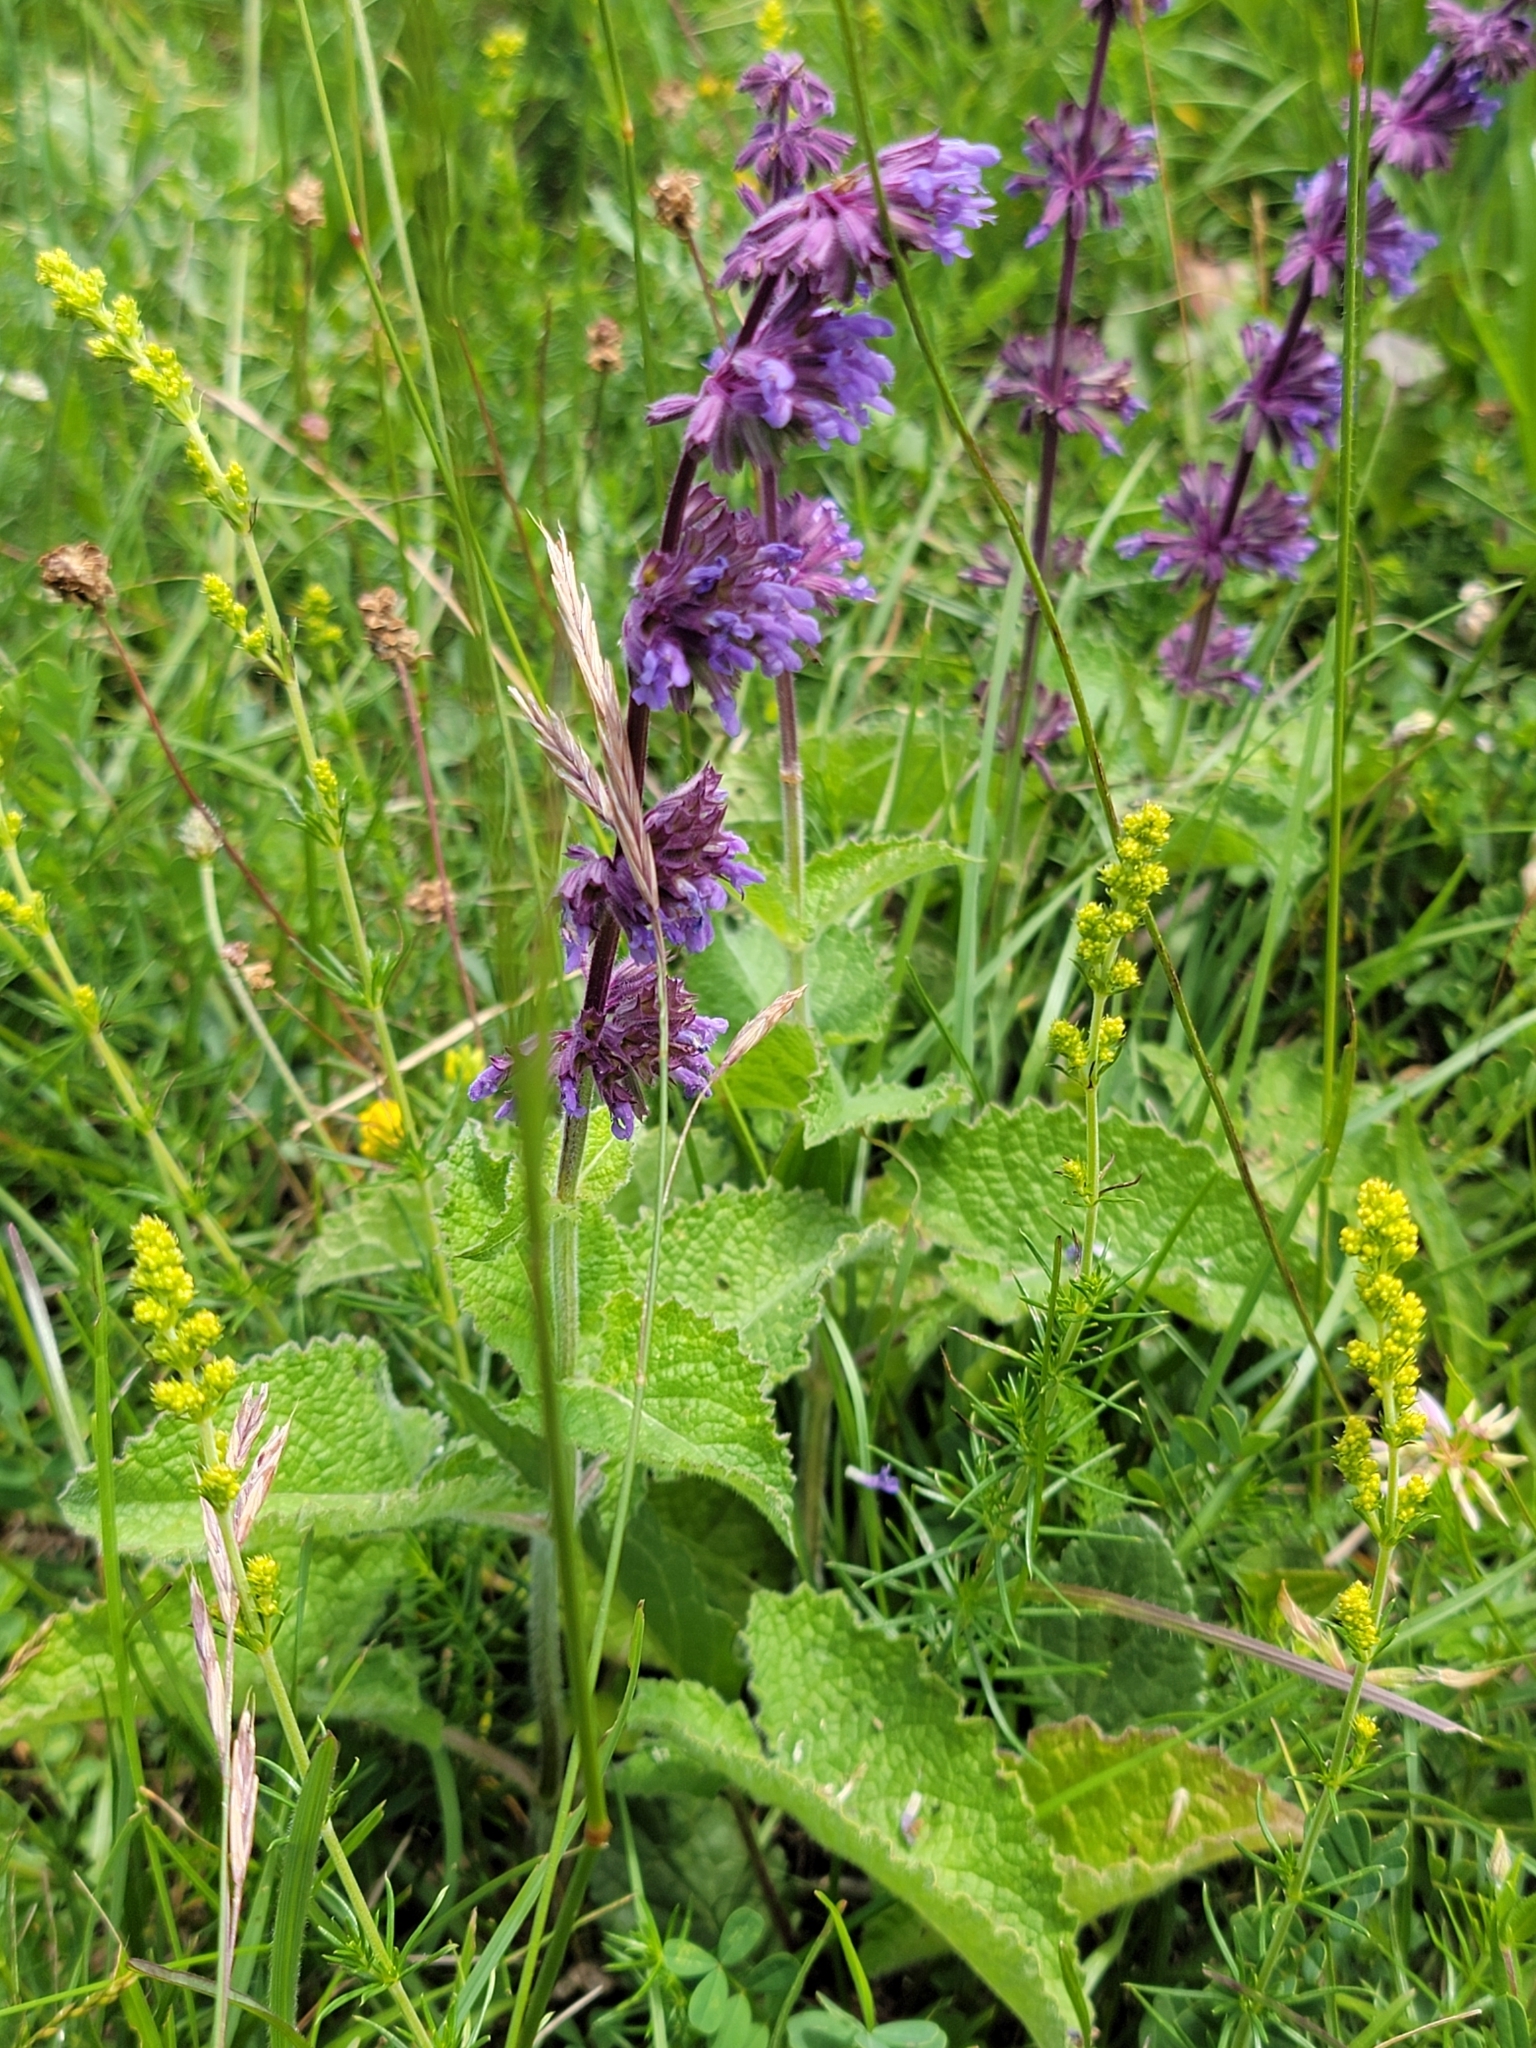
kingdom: Plantae
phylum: Tracheophyta
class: Magnoliopsida
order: Lamiales
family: Lamiaceae
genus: Salvia
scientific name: Salvia verticillata
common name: Whorled clary
